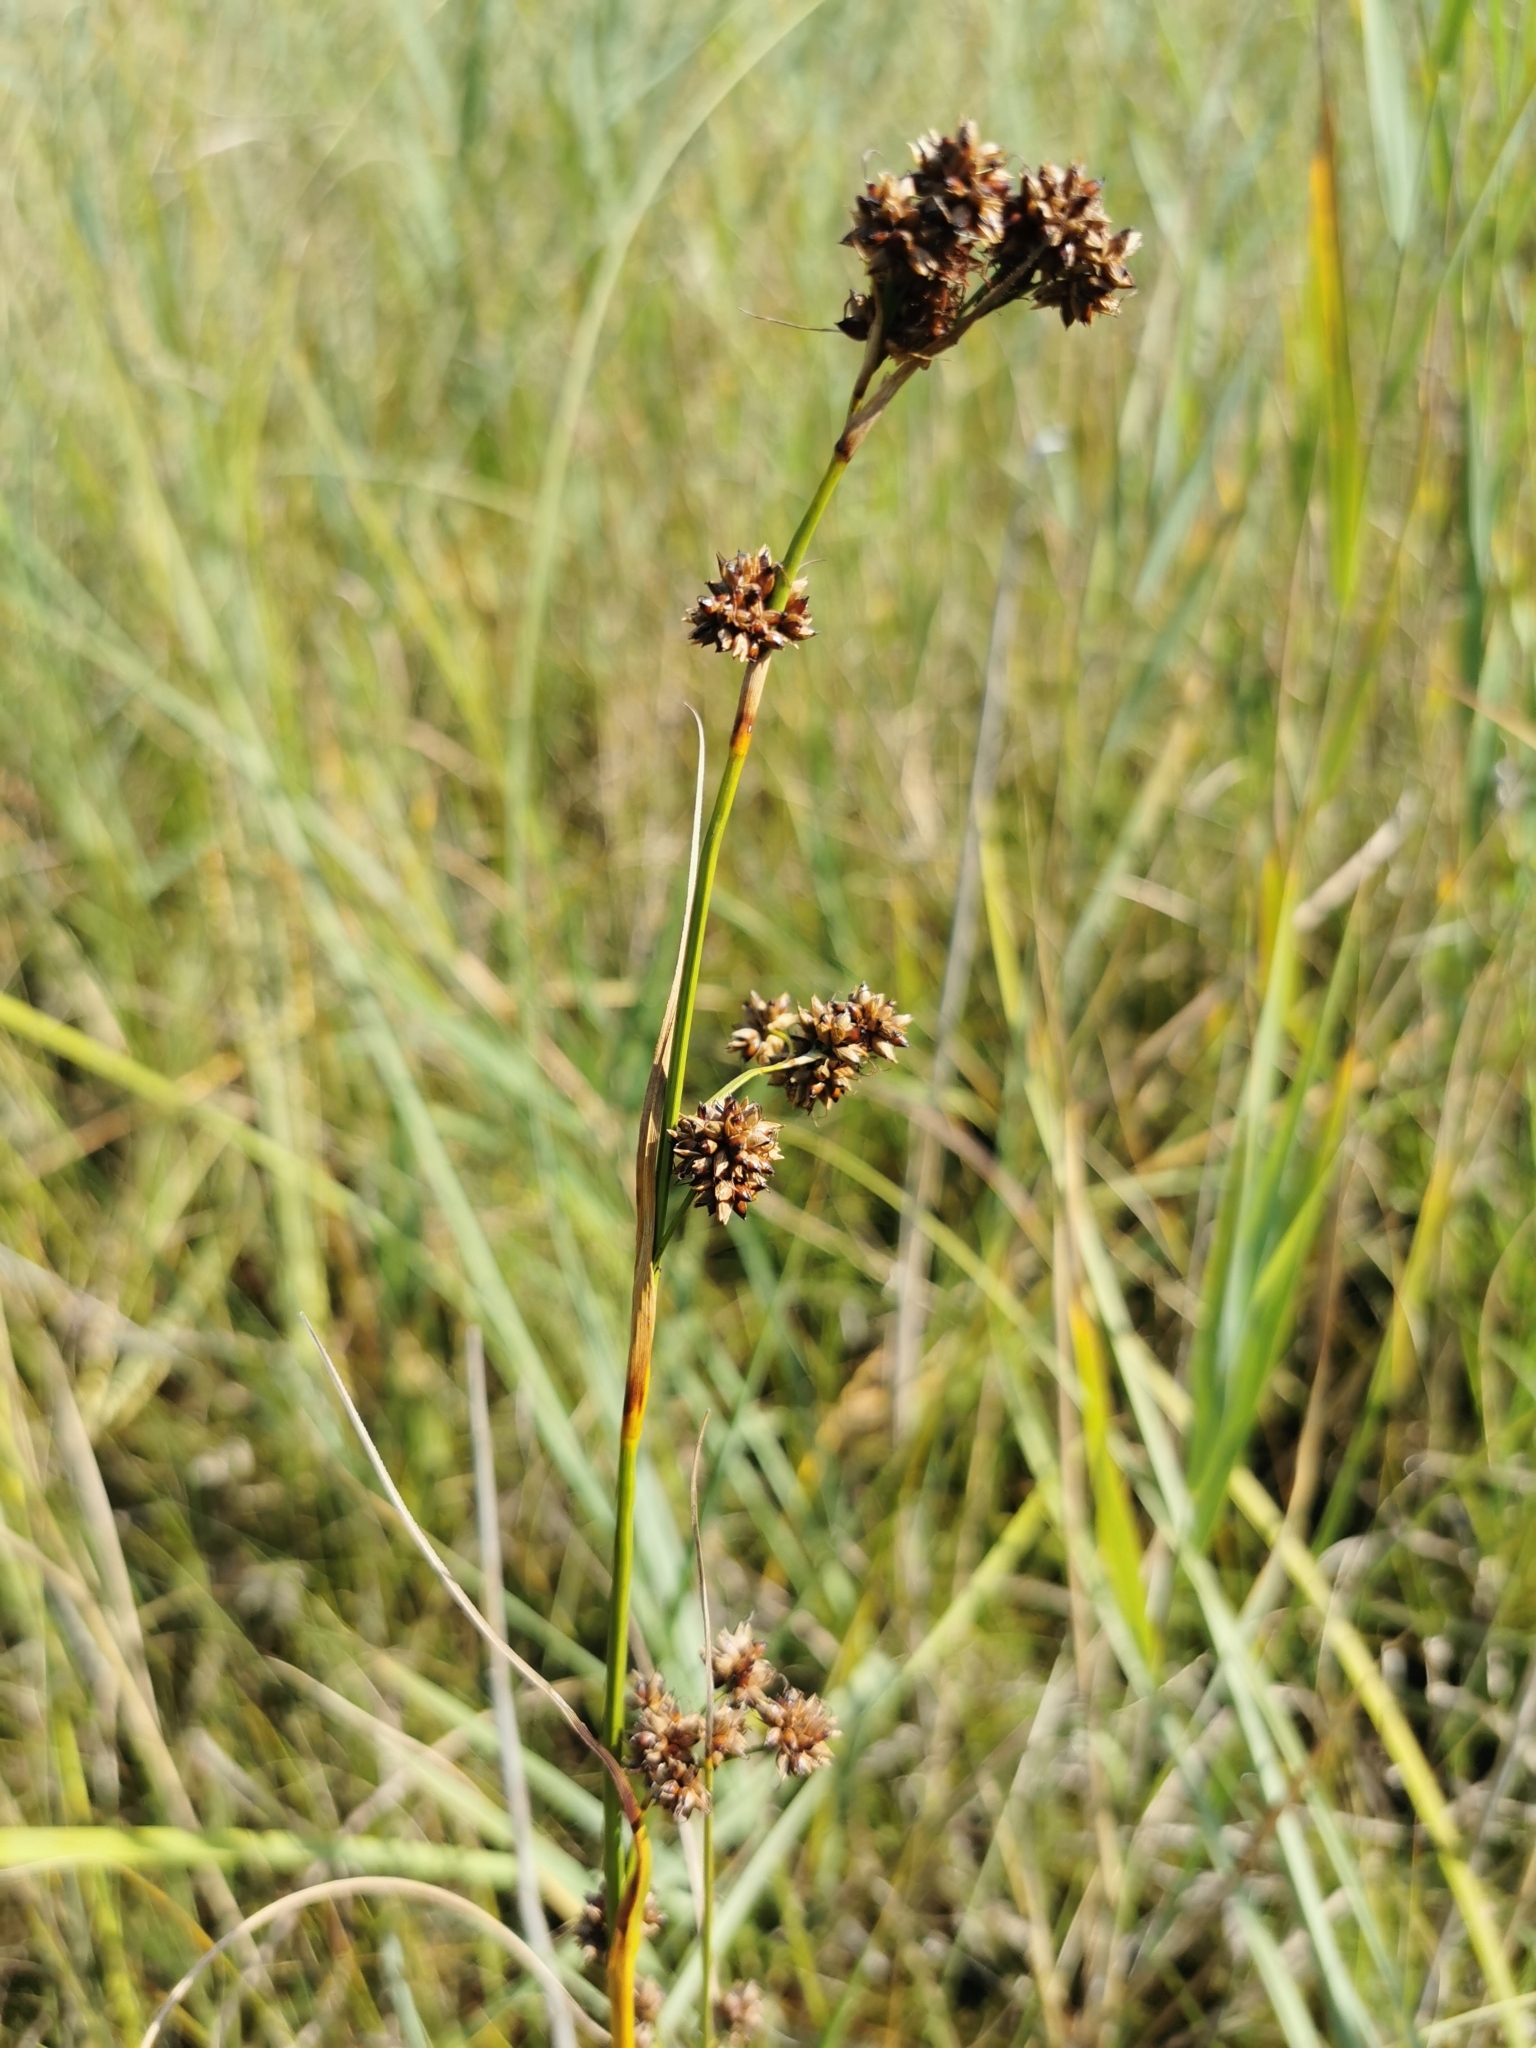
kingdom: Plantae
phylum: Tracheophyta
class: Liliopsida
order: Poales
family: Cyperaceae
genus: Cladium
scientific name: Cladium mariscus
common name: Great fen-sedge
